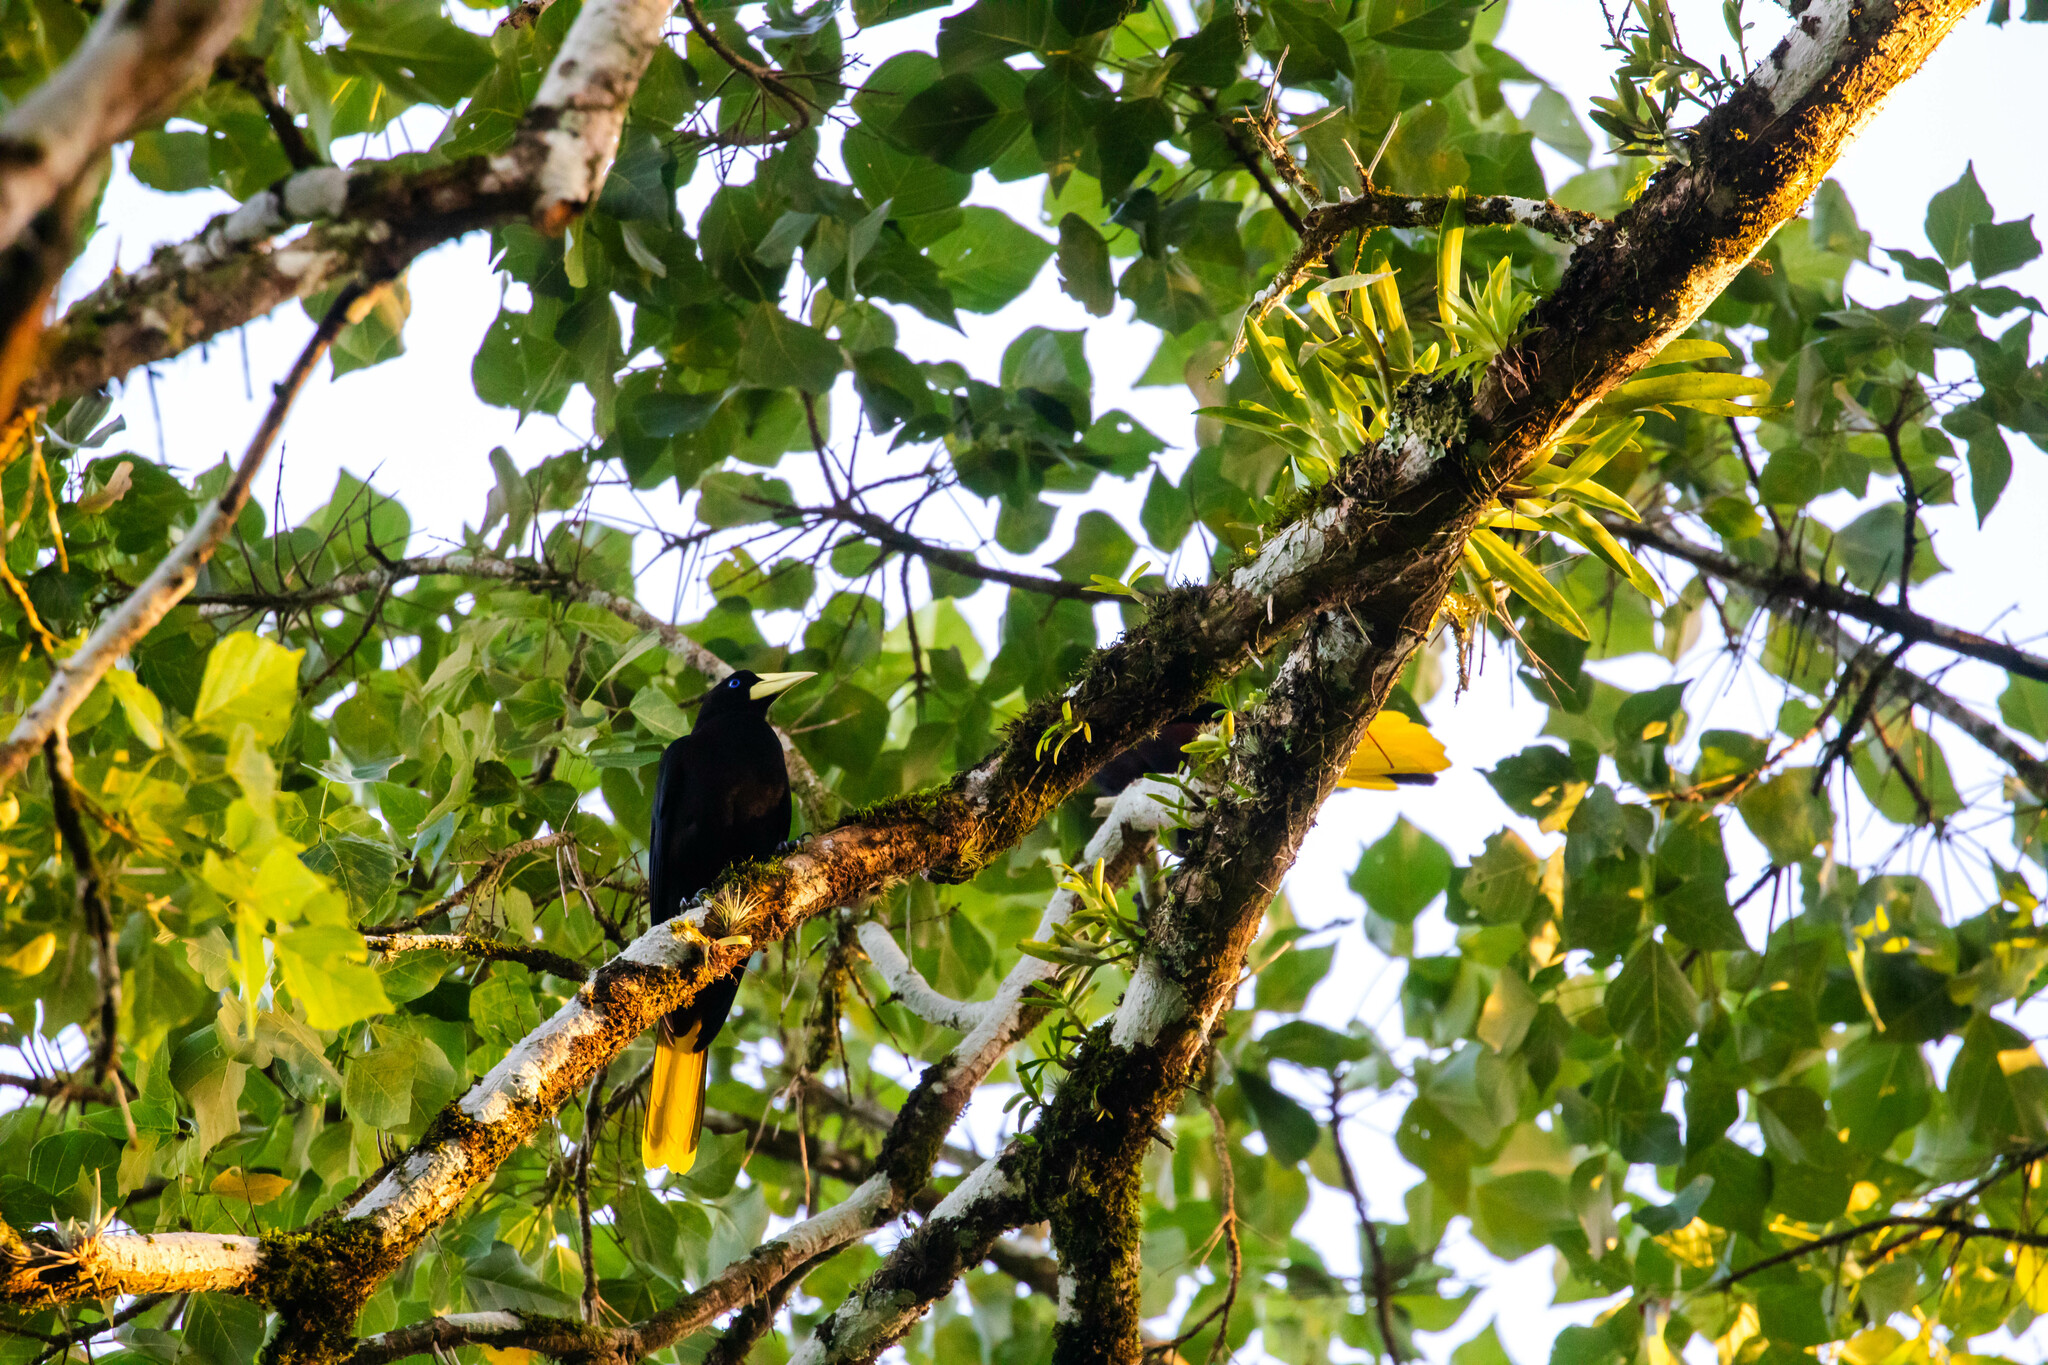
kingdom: Animalia
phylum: Chordata
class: Aves
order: Passeriformes
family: Icteridae
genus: Psarocolius
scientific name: Psarocolius decumanus
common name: Crested oropendola
